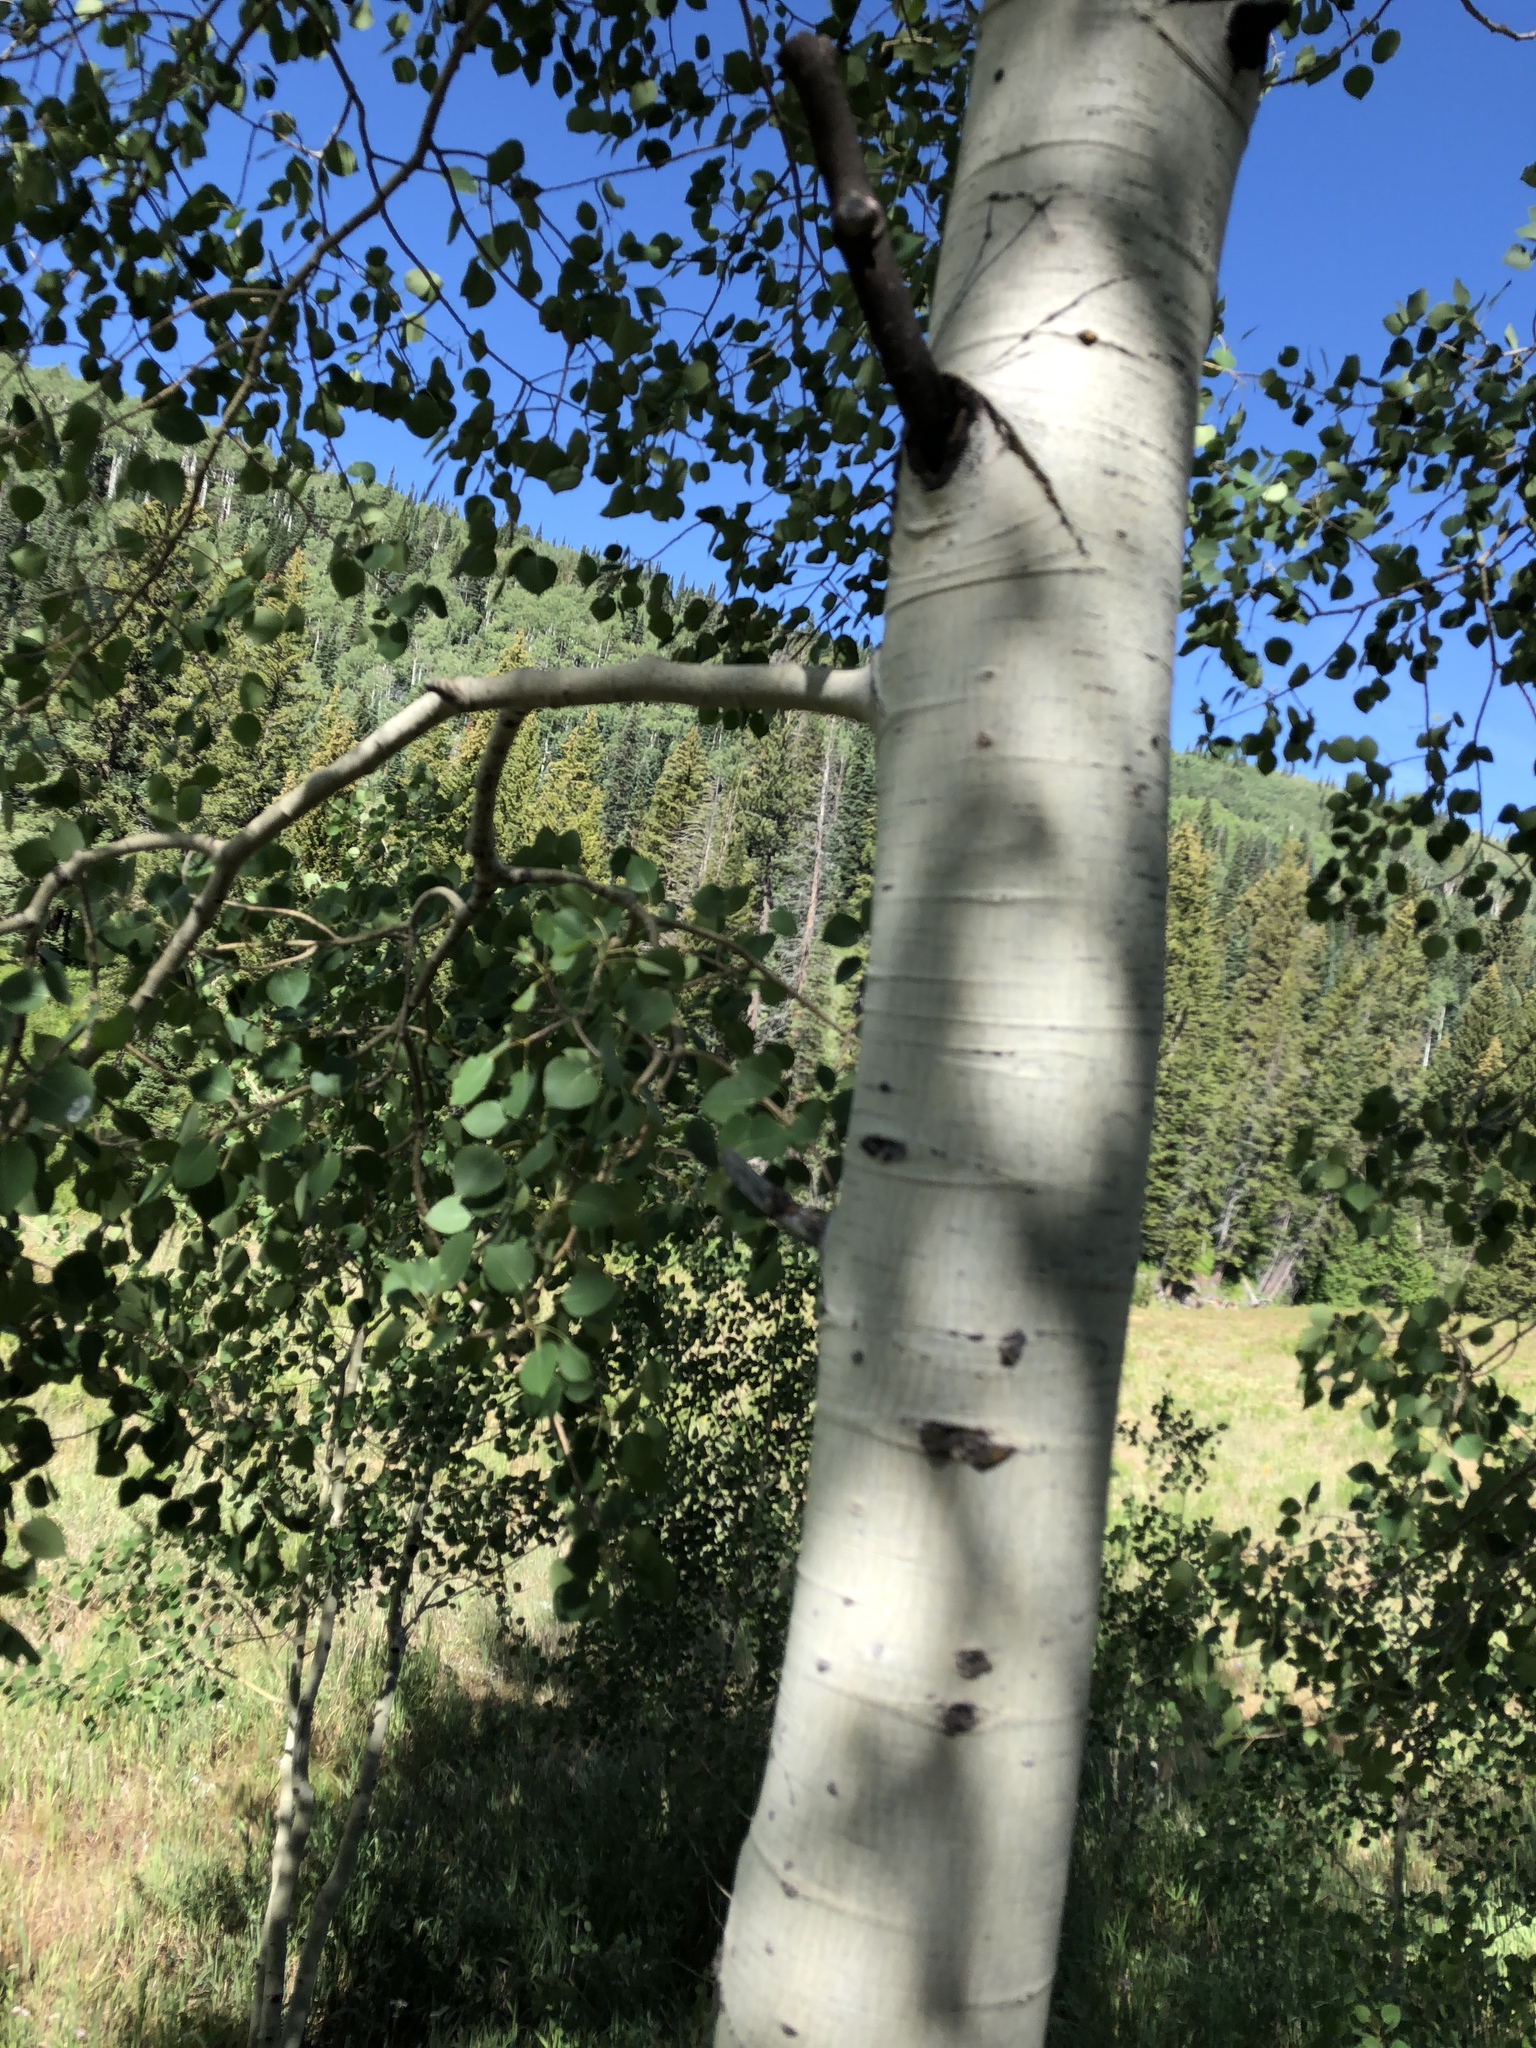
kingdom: Plantae
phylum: Tracheophyta
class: Magnoliopsida
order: Malpighiales
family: Salicaceae
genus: Populus
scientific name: Populus tremuloides
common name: Quaking aspen
